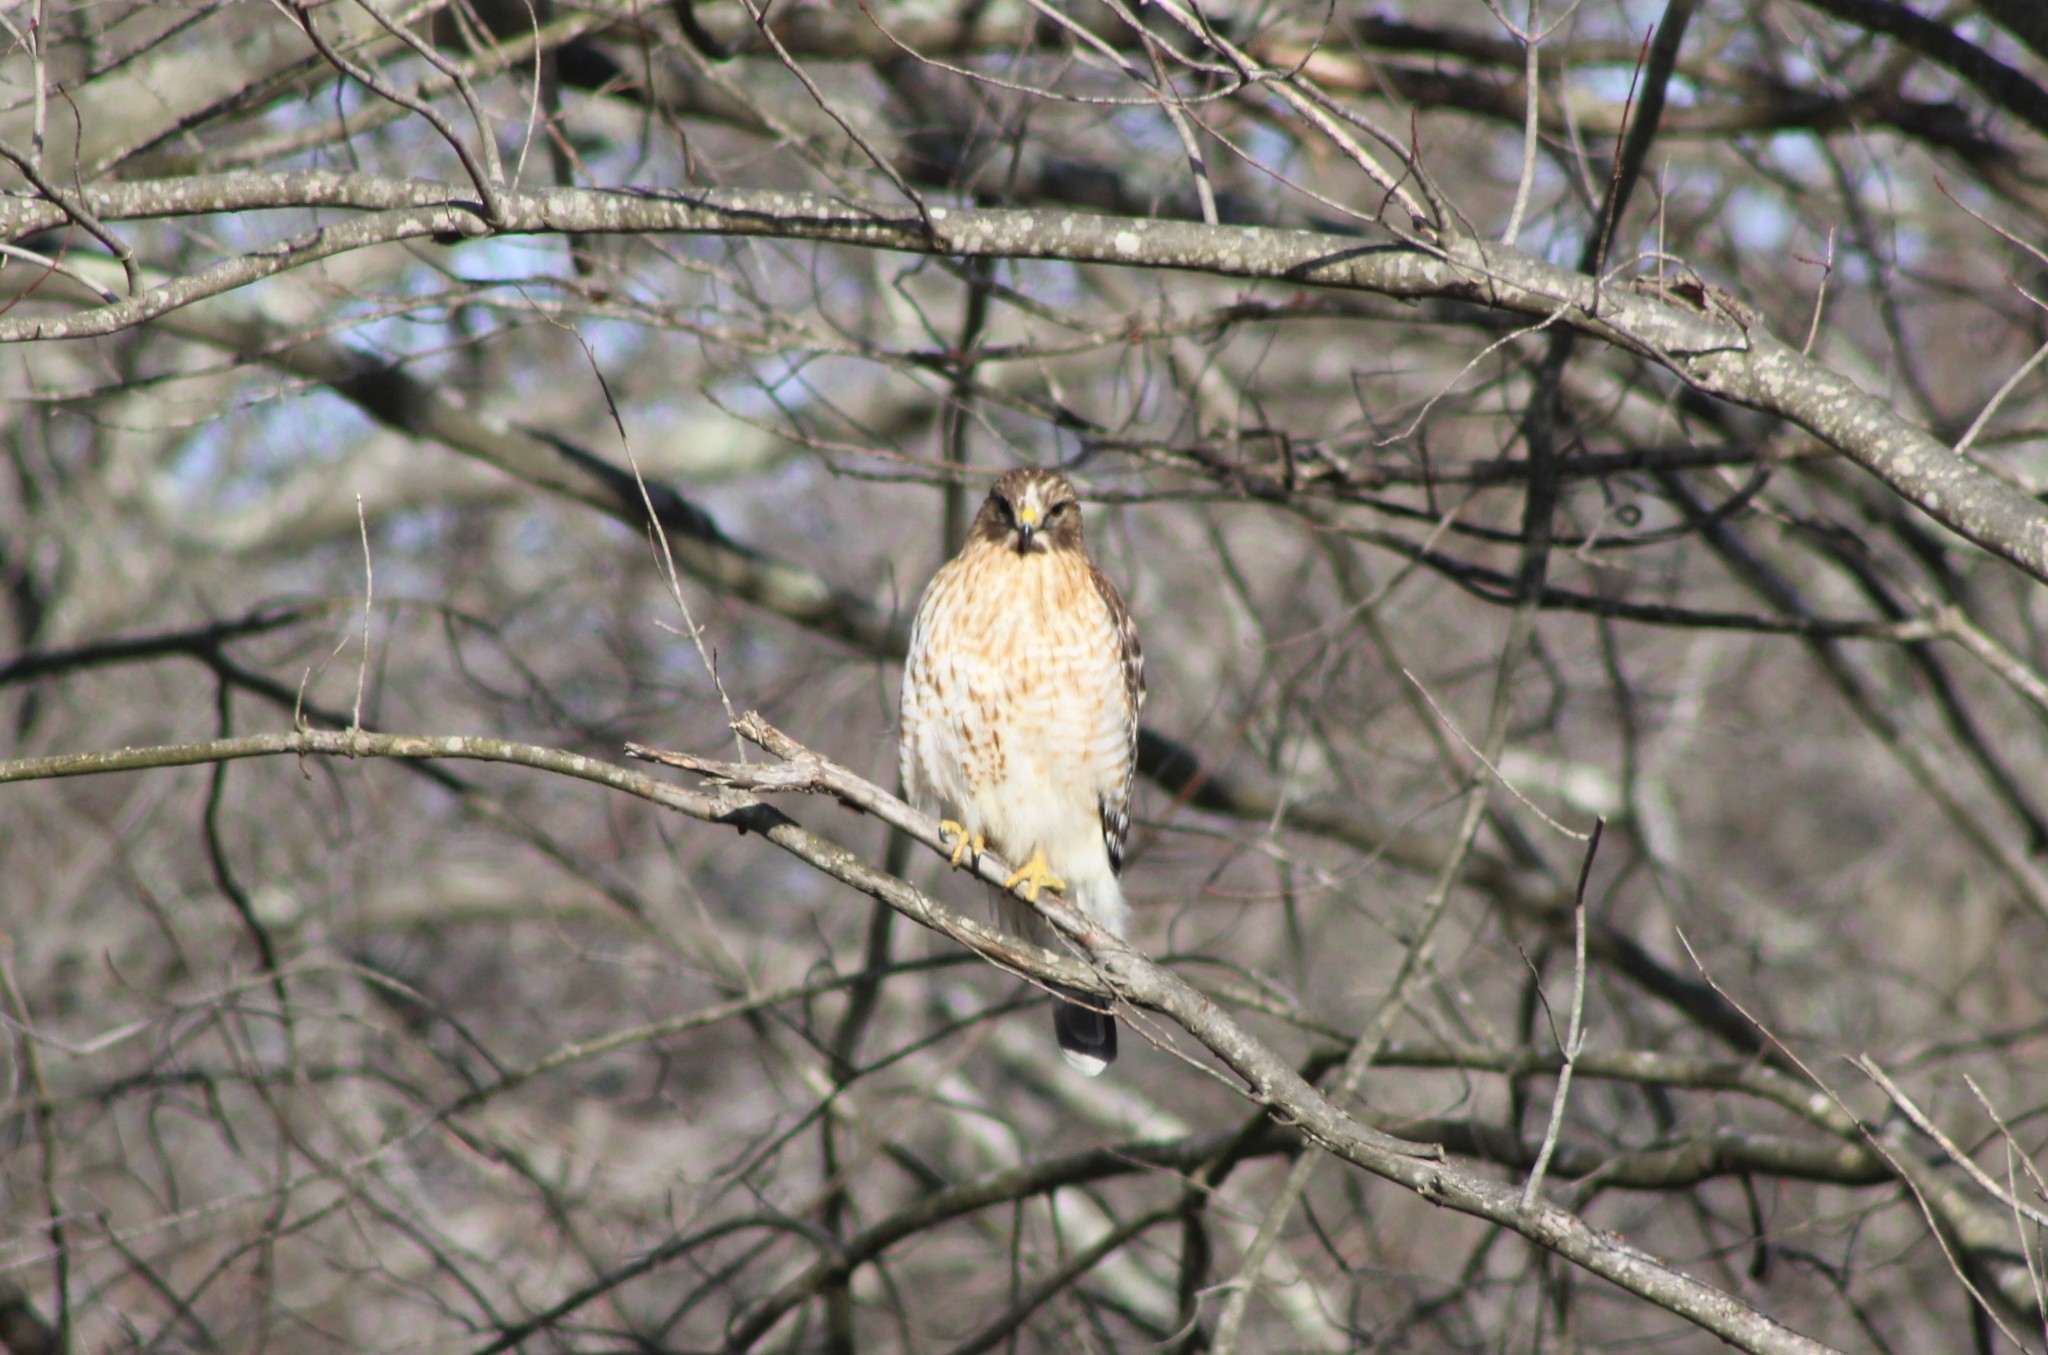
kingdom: Animalia
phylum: Chordata
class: Aves
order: Accipitriformes
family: Accipitridae
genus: Buteo
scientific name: Buteo lineatus
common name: Red-shouldered hawk
